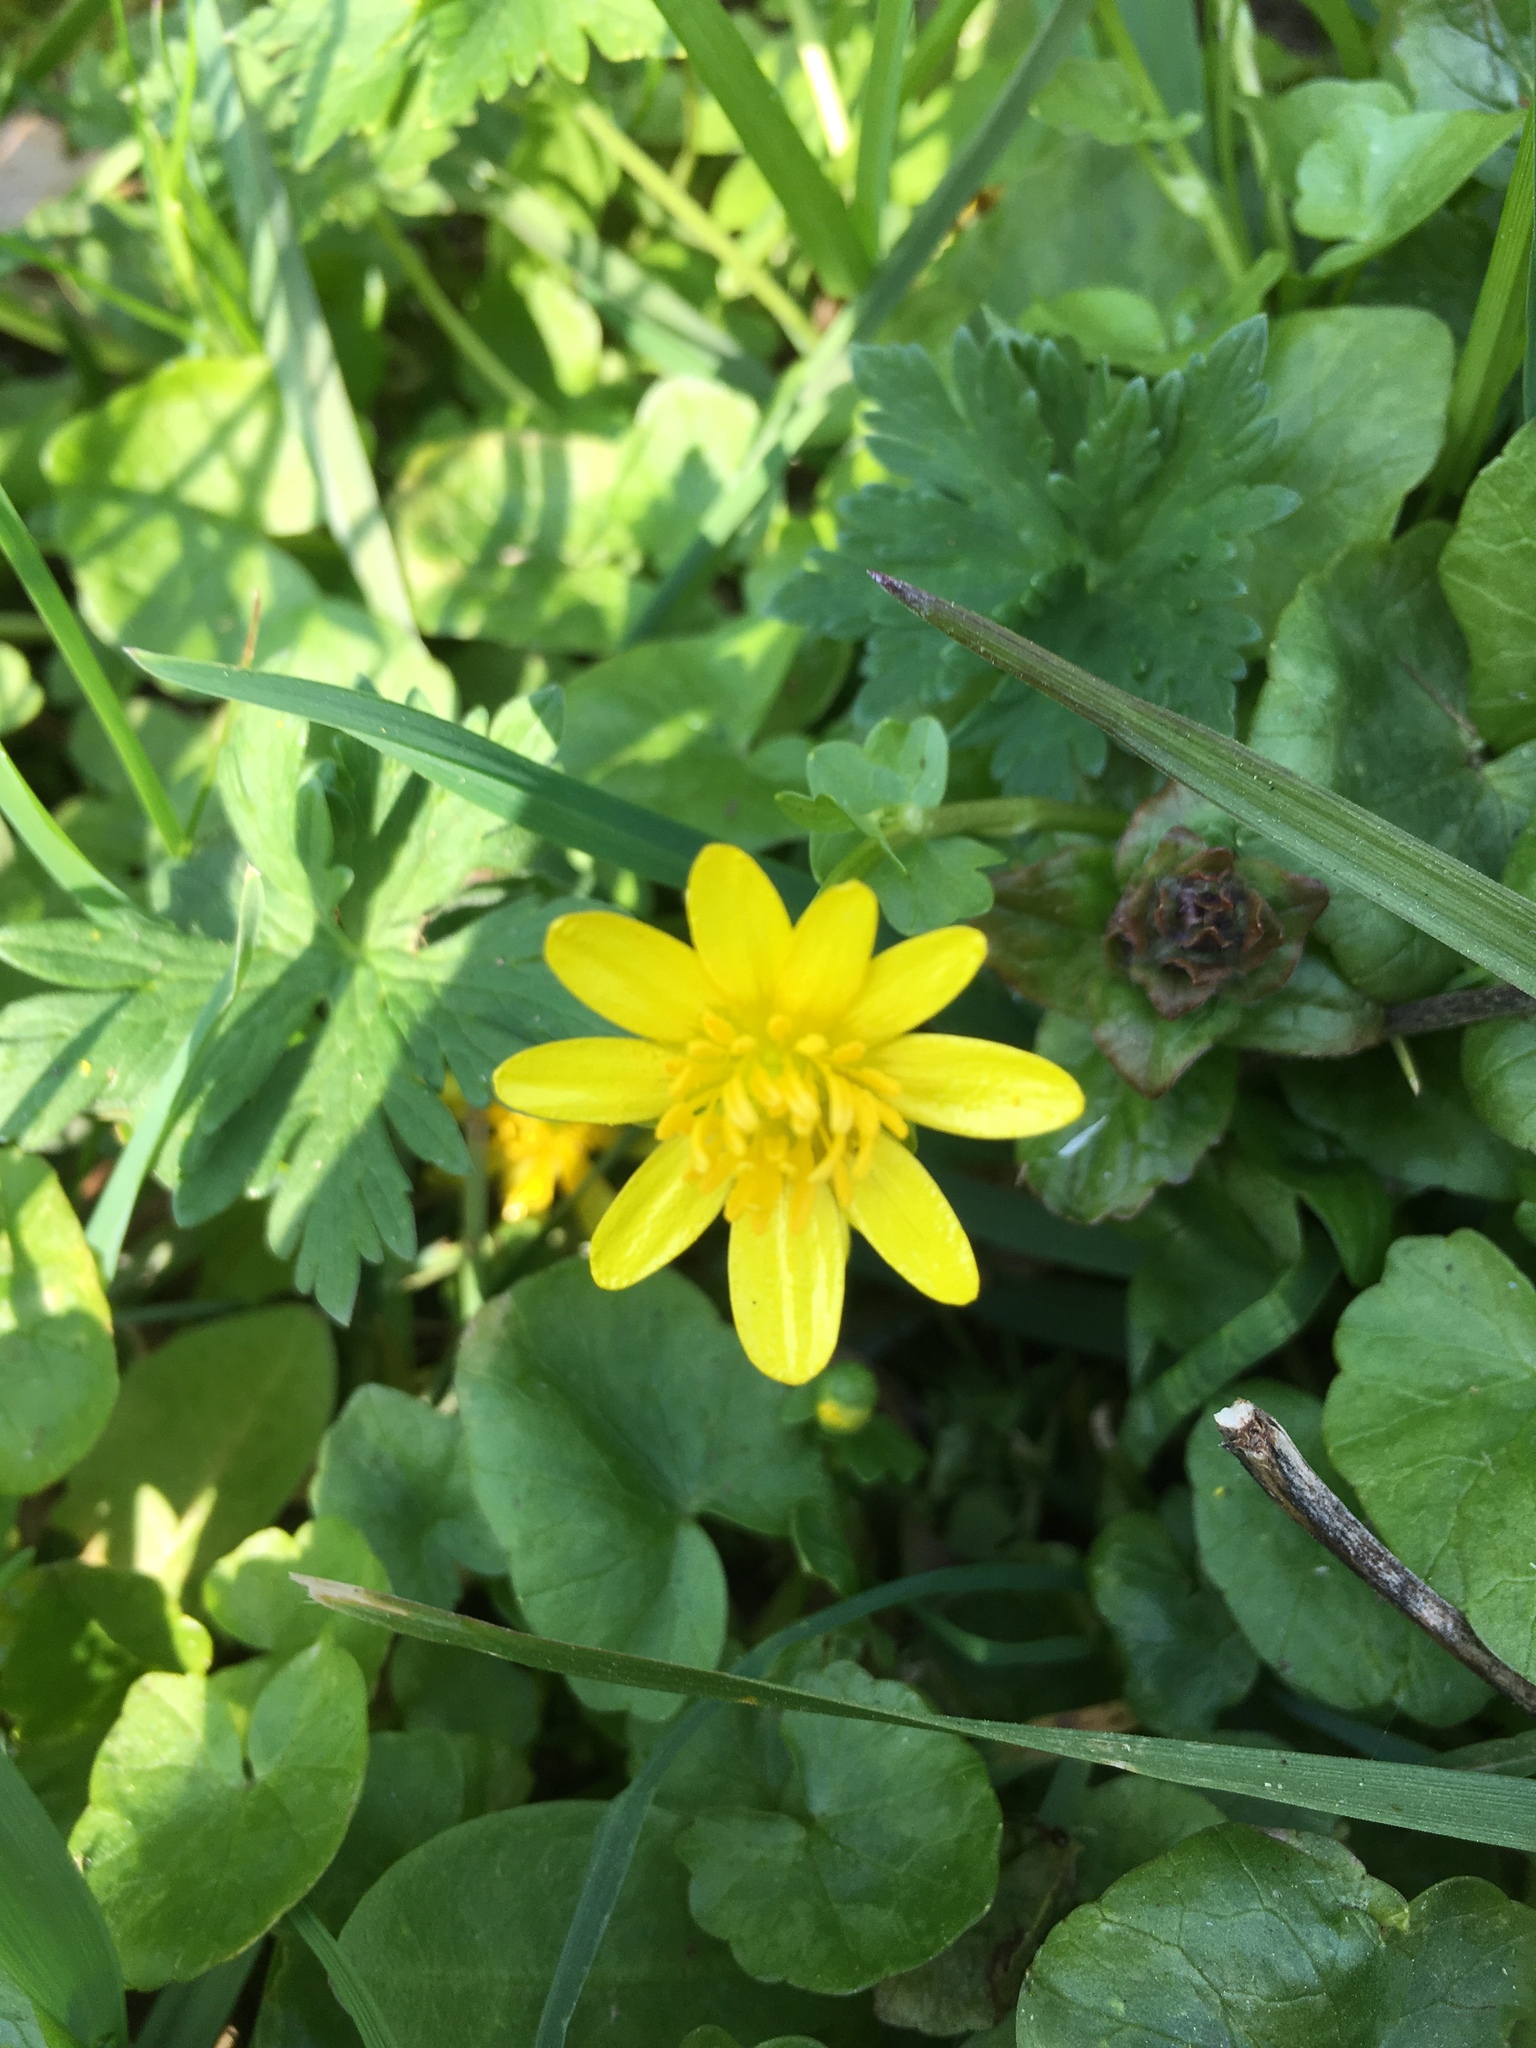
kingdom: Plantae
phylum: Tracheophyta
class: Magnoliopsida
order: Ranunculales
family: Ranunculaceae
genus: Ficaria
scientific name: Ficaria verna
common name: Lesser celandine
